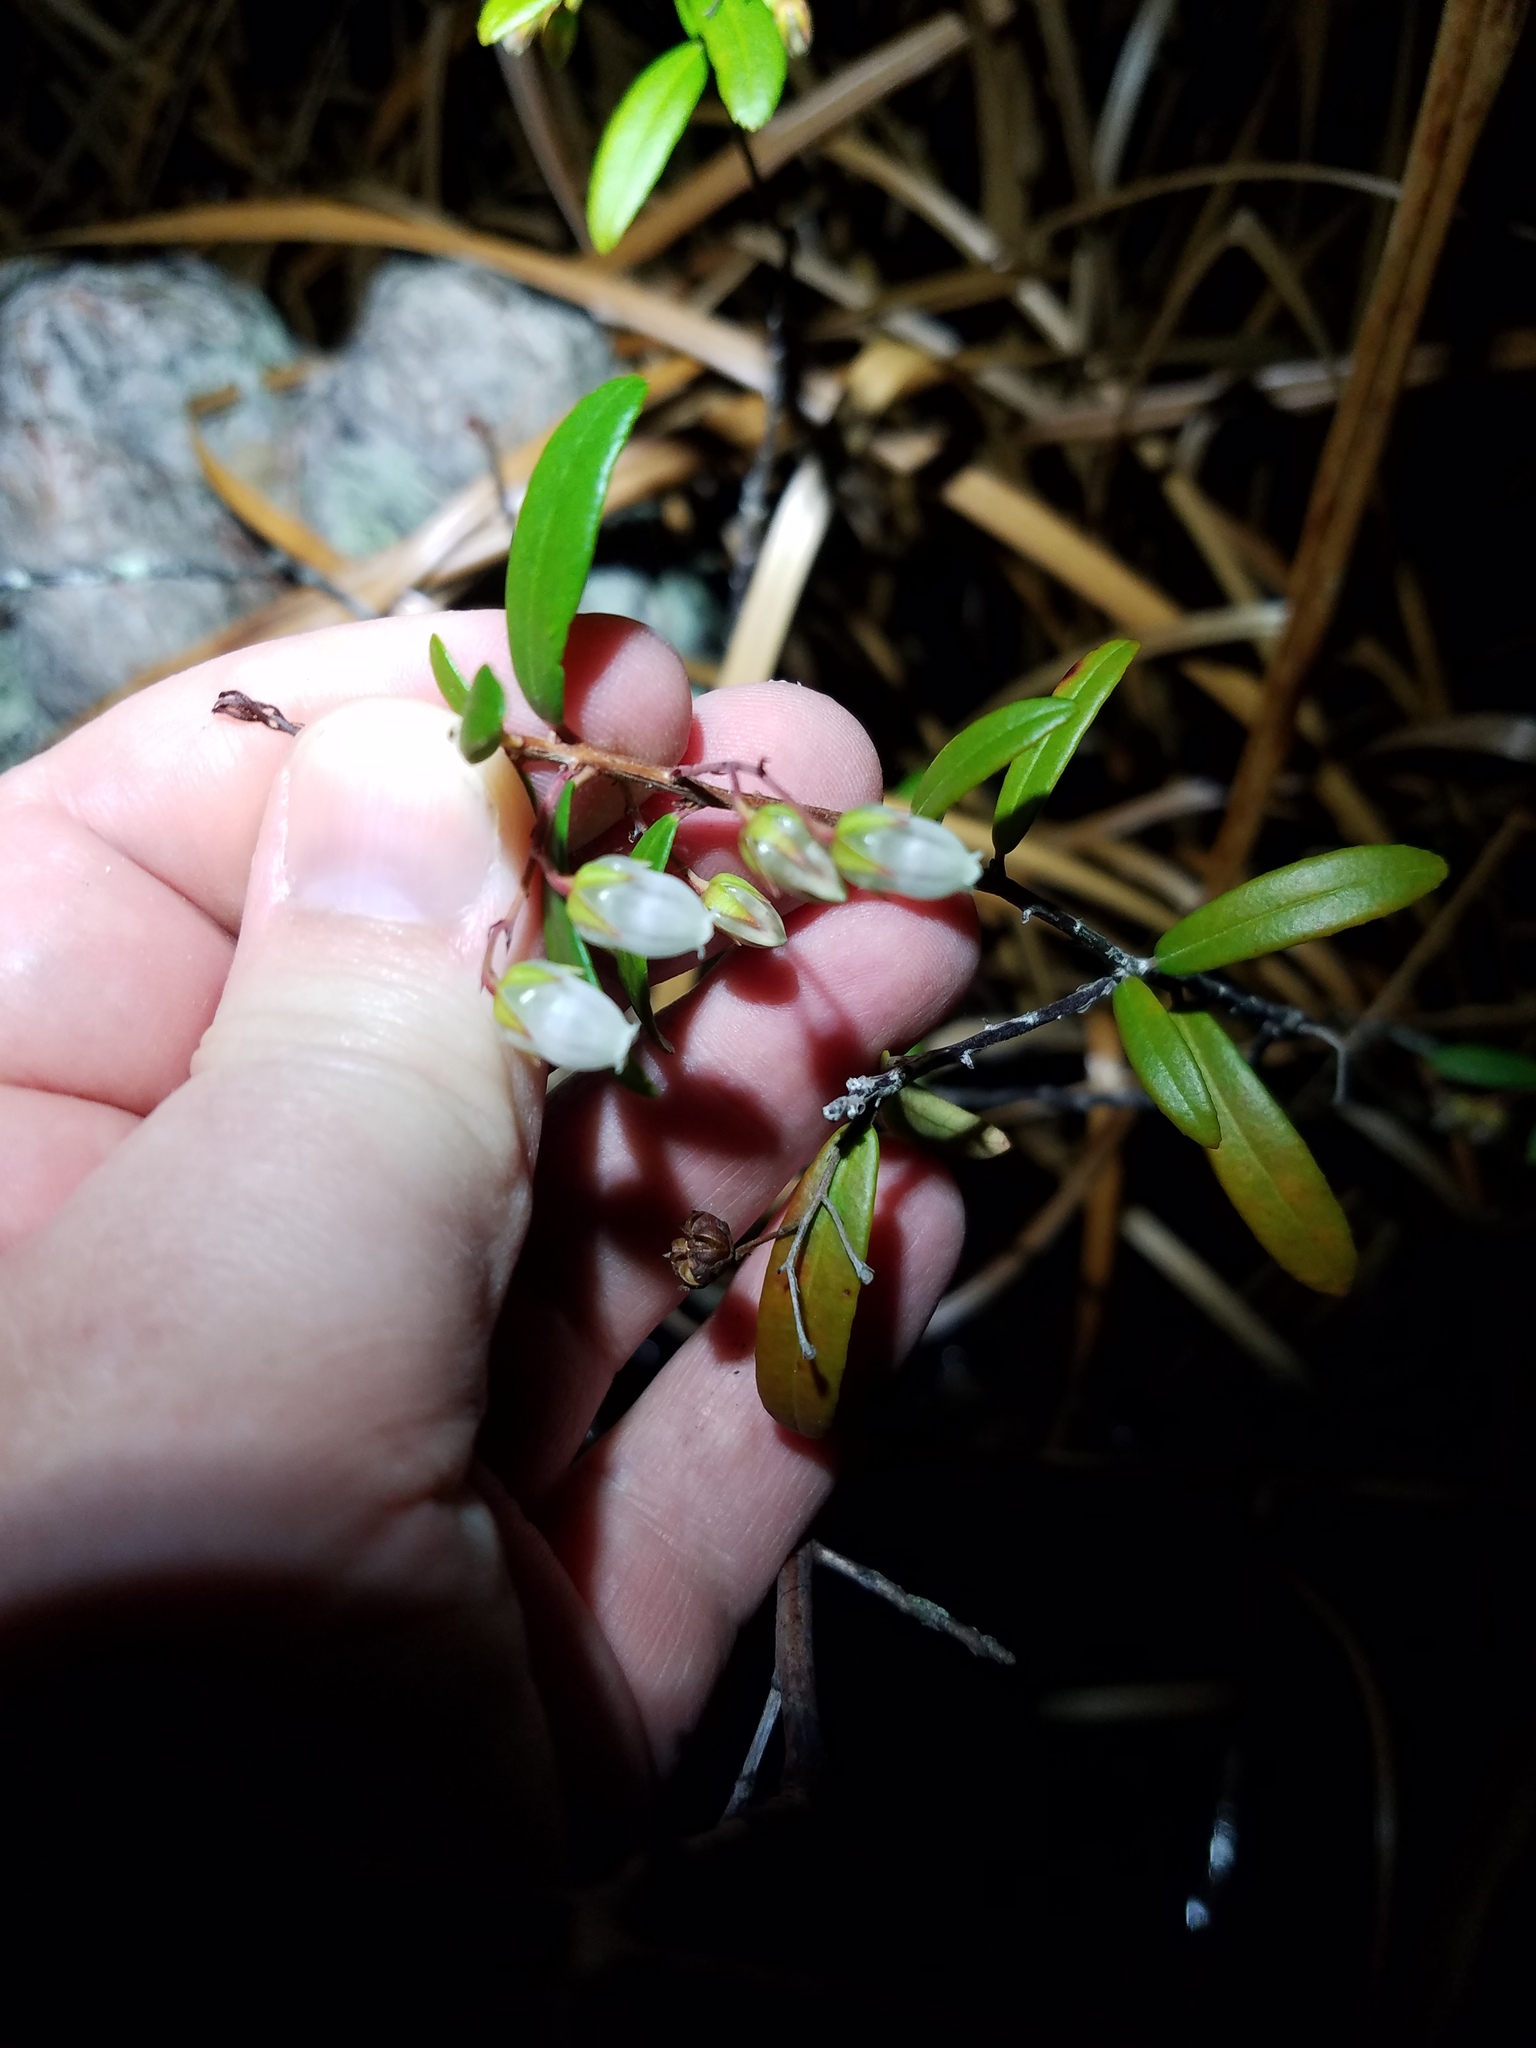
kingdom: Plantae
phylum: Tracheophyta
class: Magnoliopsida
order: Ericales
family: Ericaceae
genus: Pieris
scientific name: Pieris phillyreifolia
